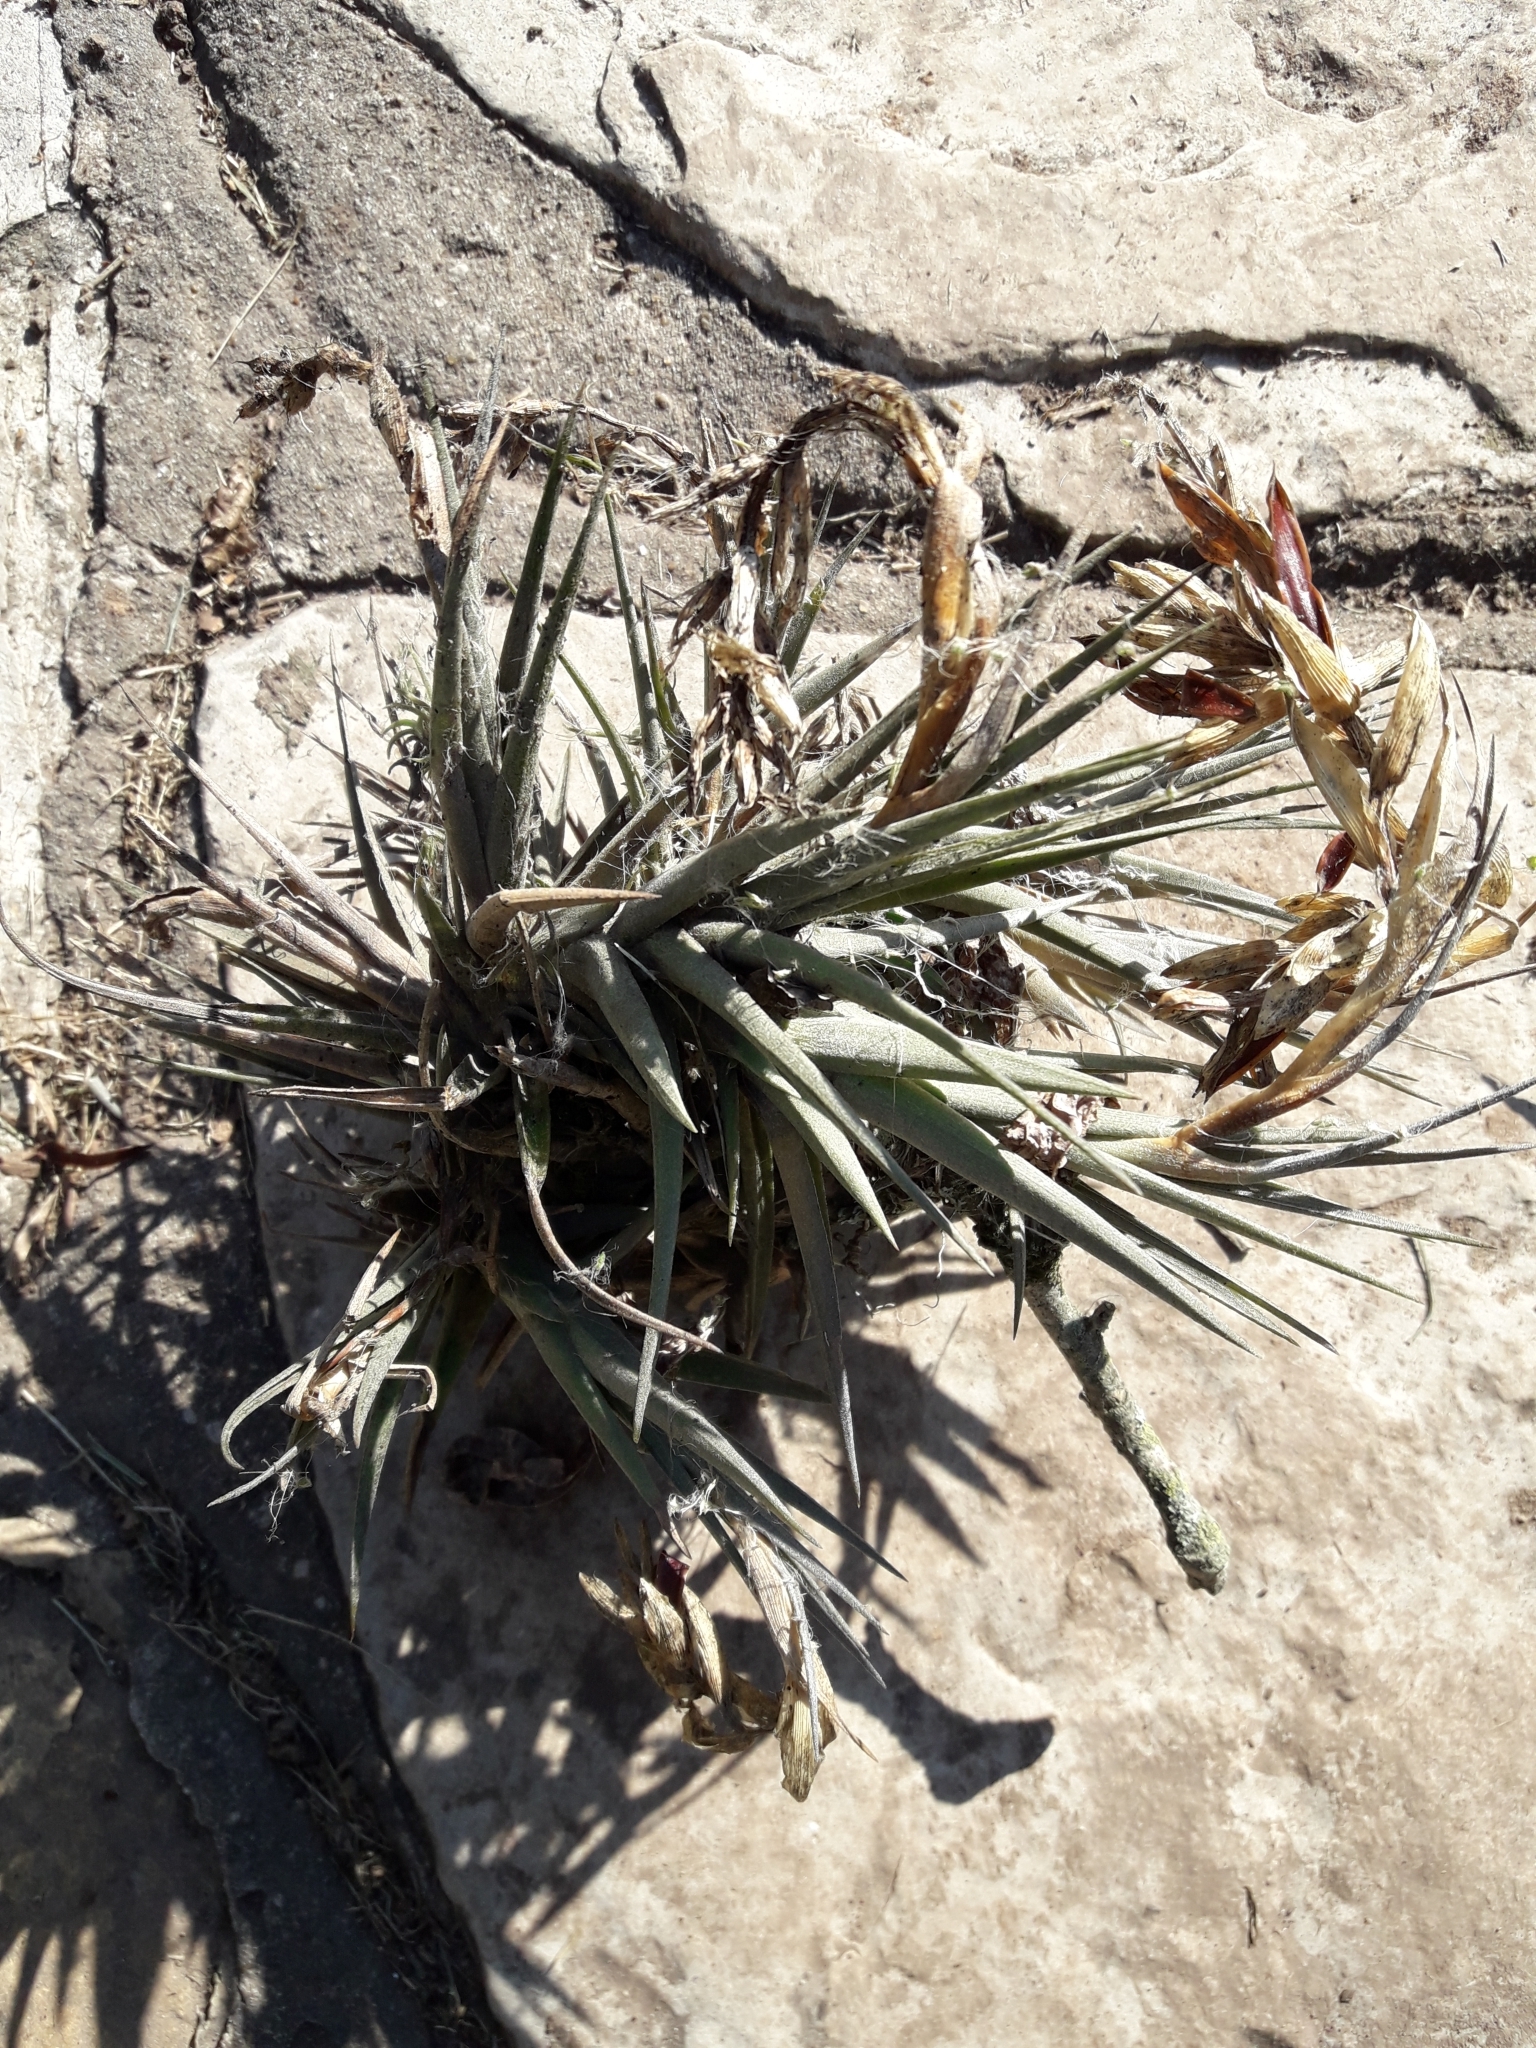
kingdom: Plantae
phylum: Tracheophyta
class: Liliopsida
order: Poales
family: Bromeliaceae
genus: Tillandsia
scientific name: Tillandsia aeranthos
